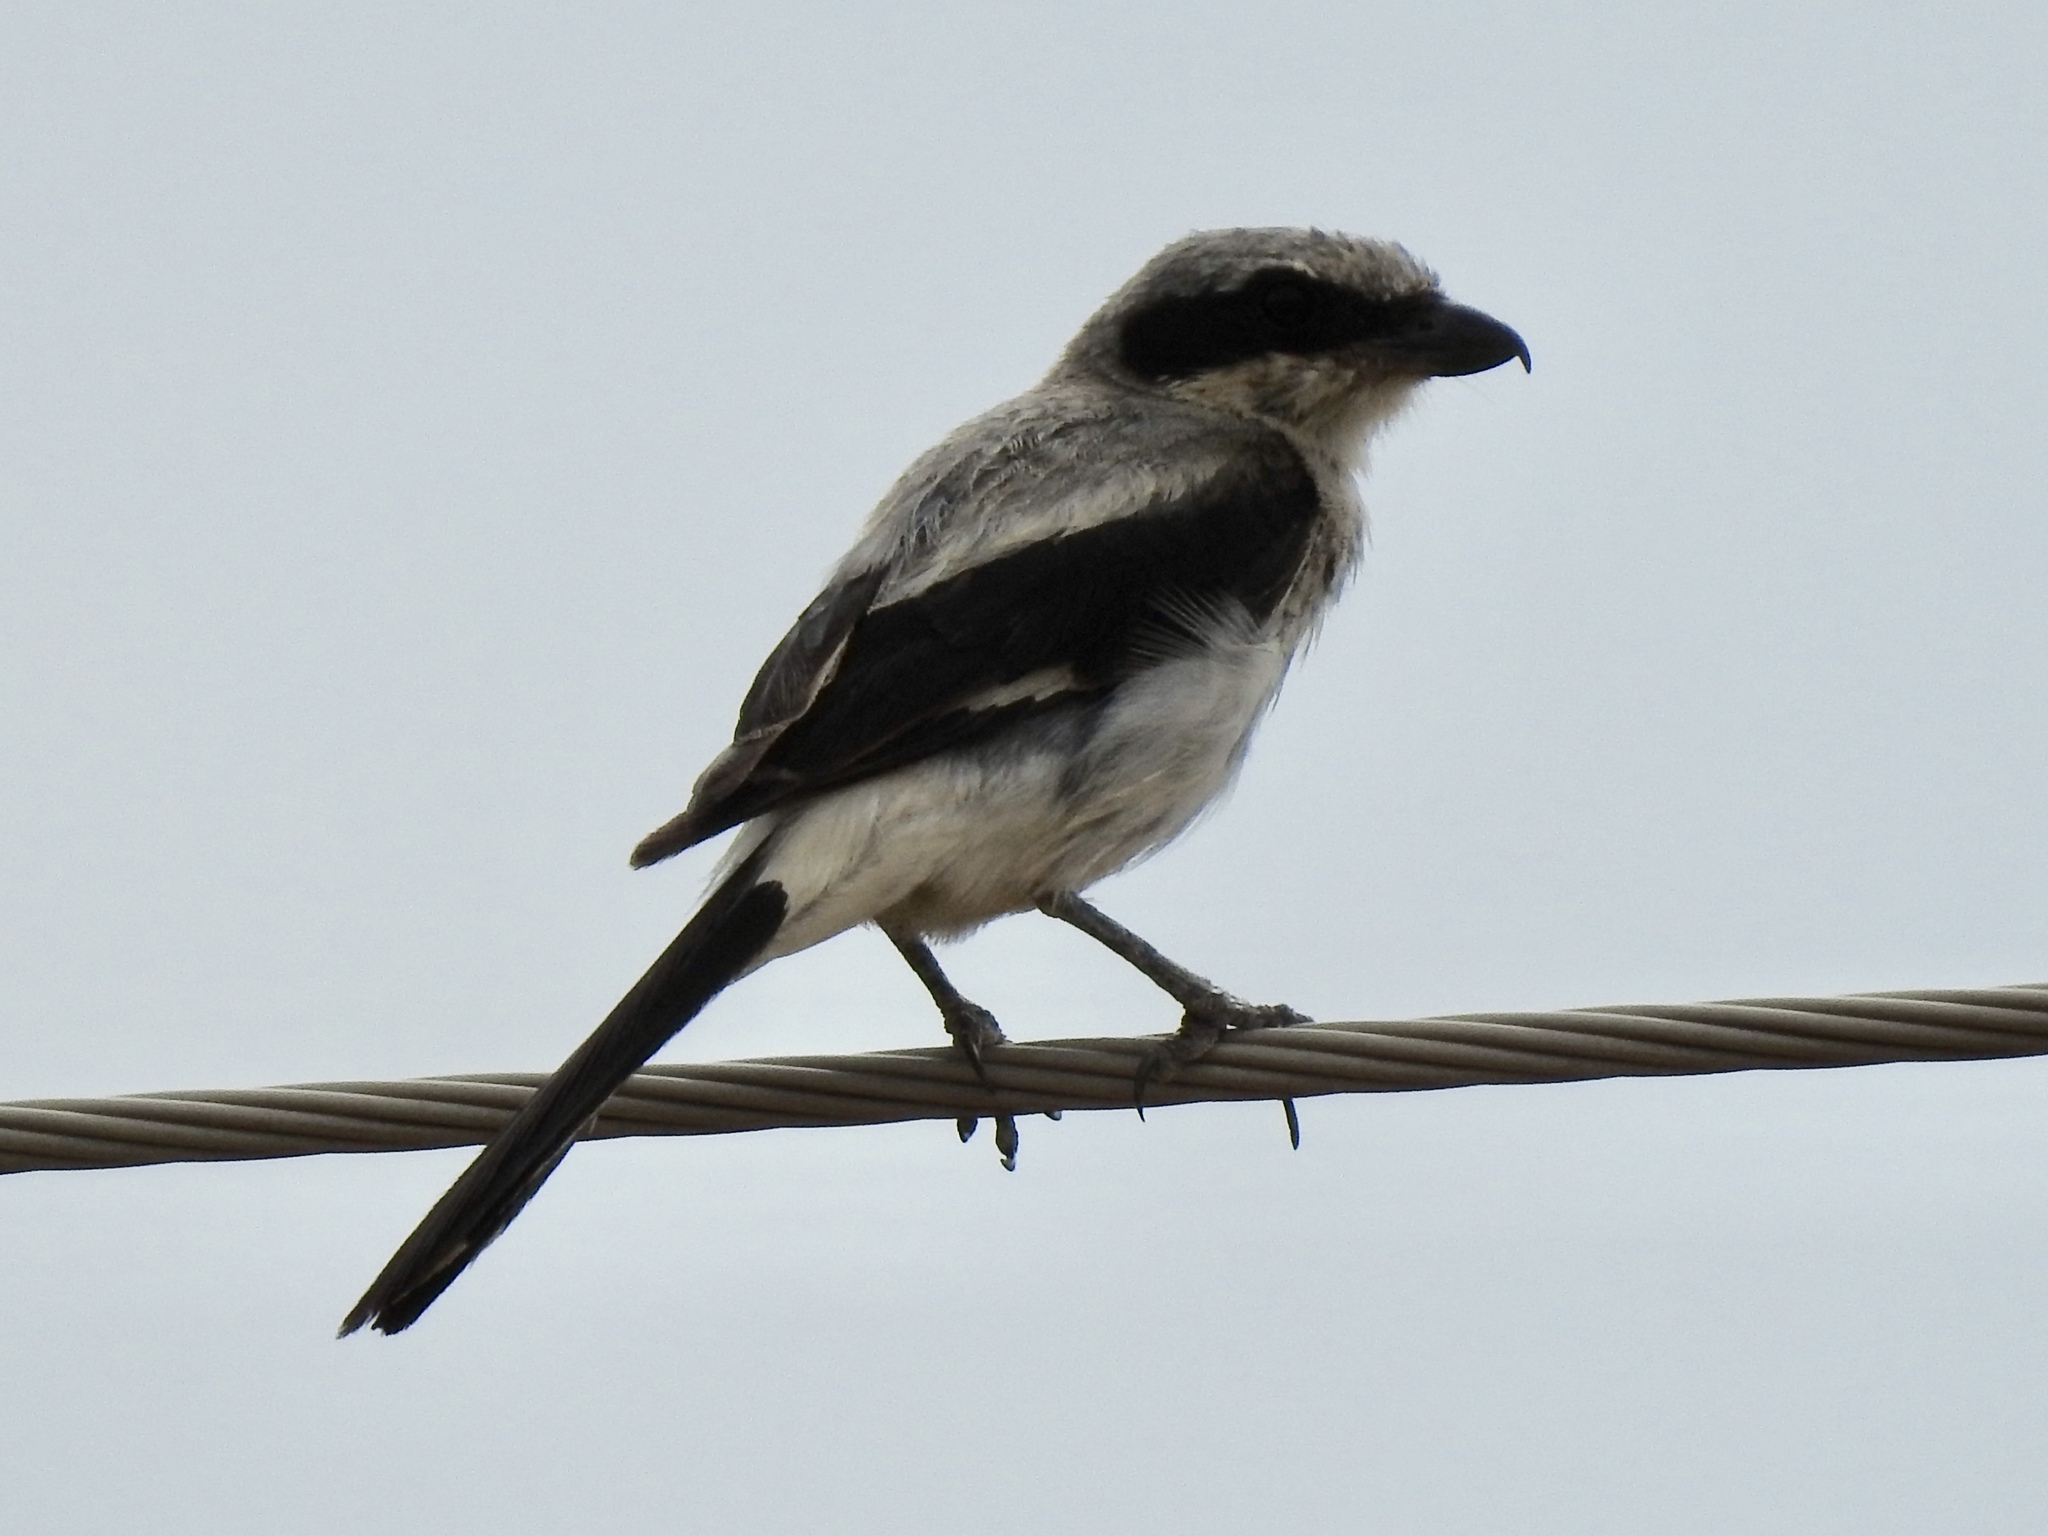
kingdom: Animalia
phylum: Chordata
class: Aves
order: Passeriformes
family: Laniidae
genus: Lanius
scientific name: Lanius ludovicianus
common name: Loggerhead shrike
